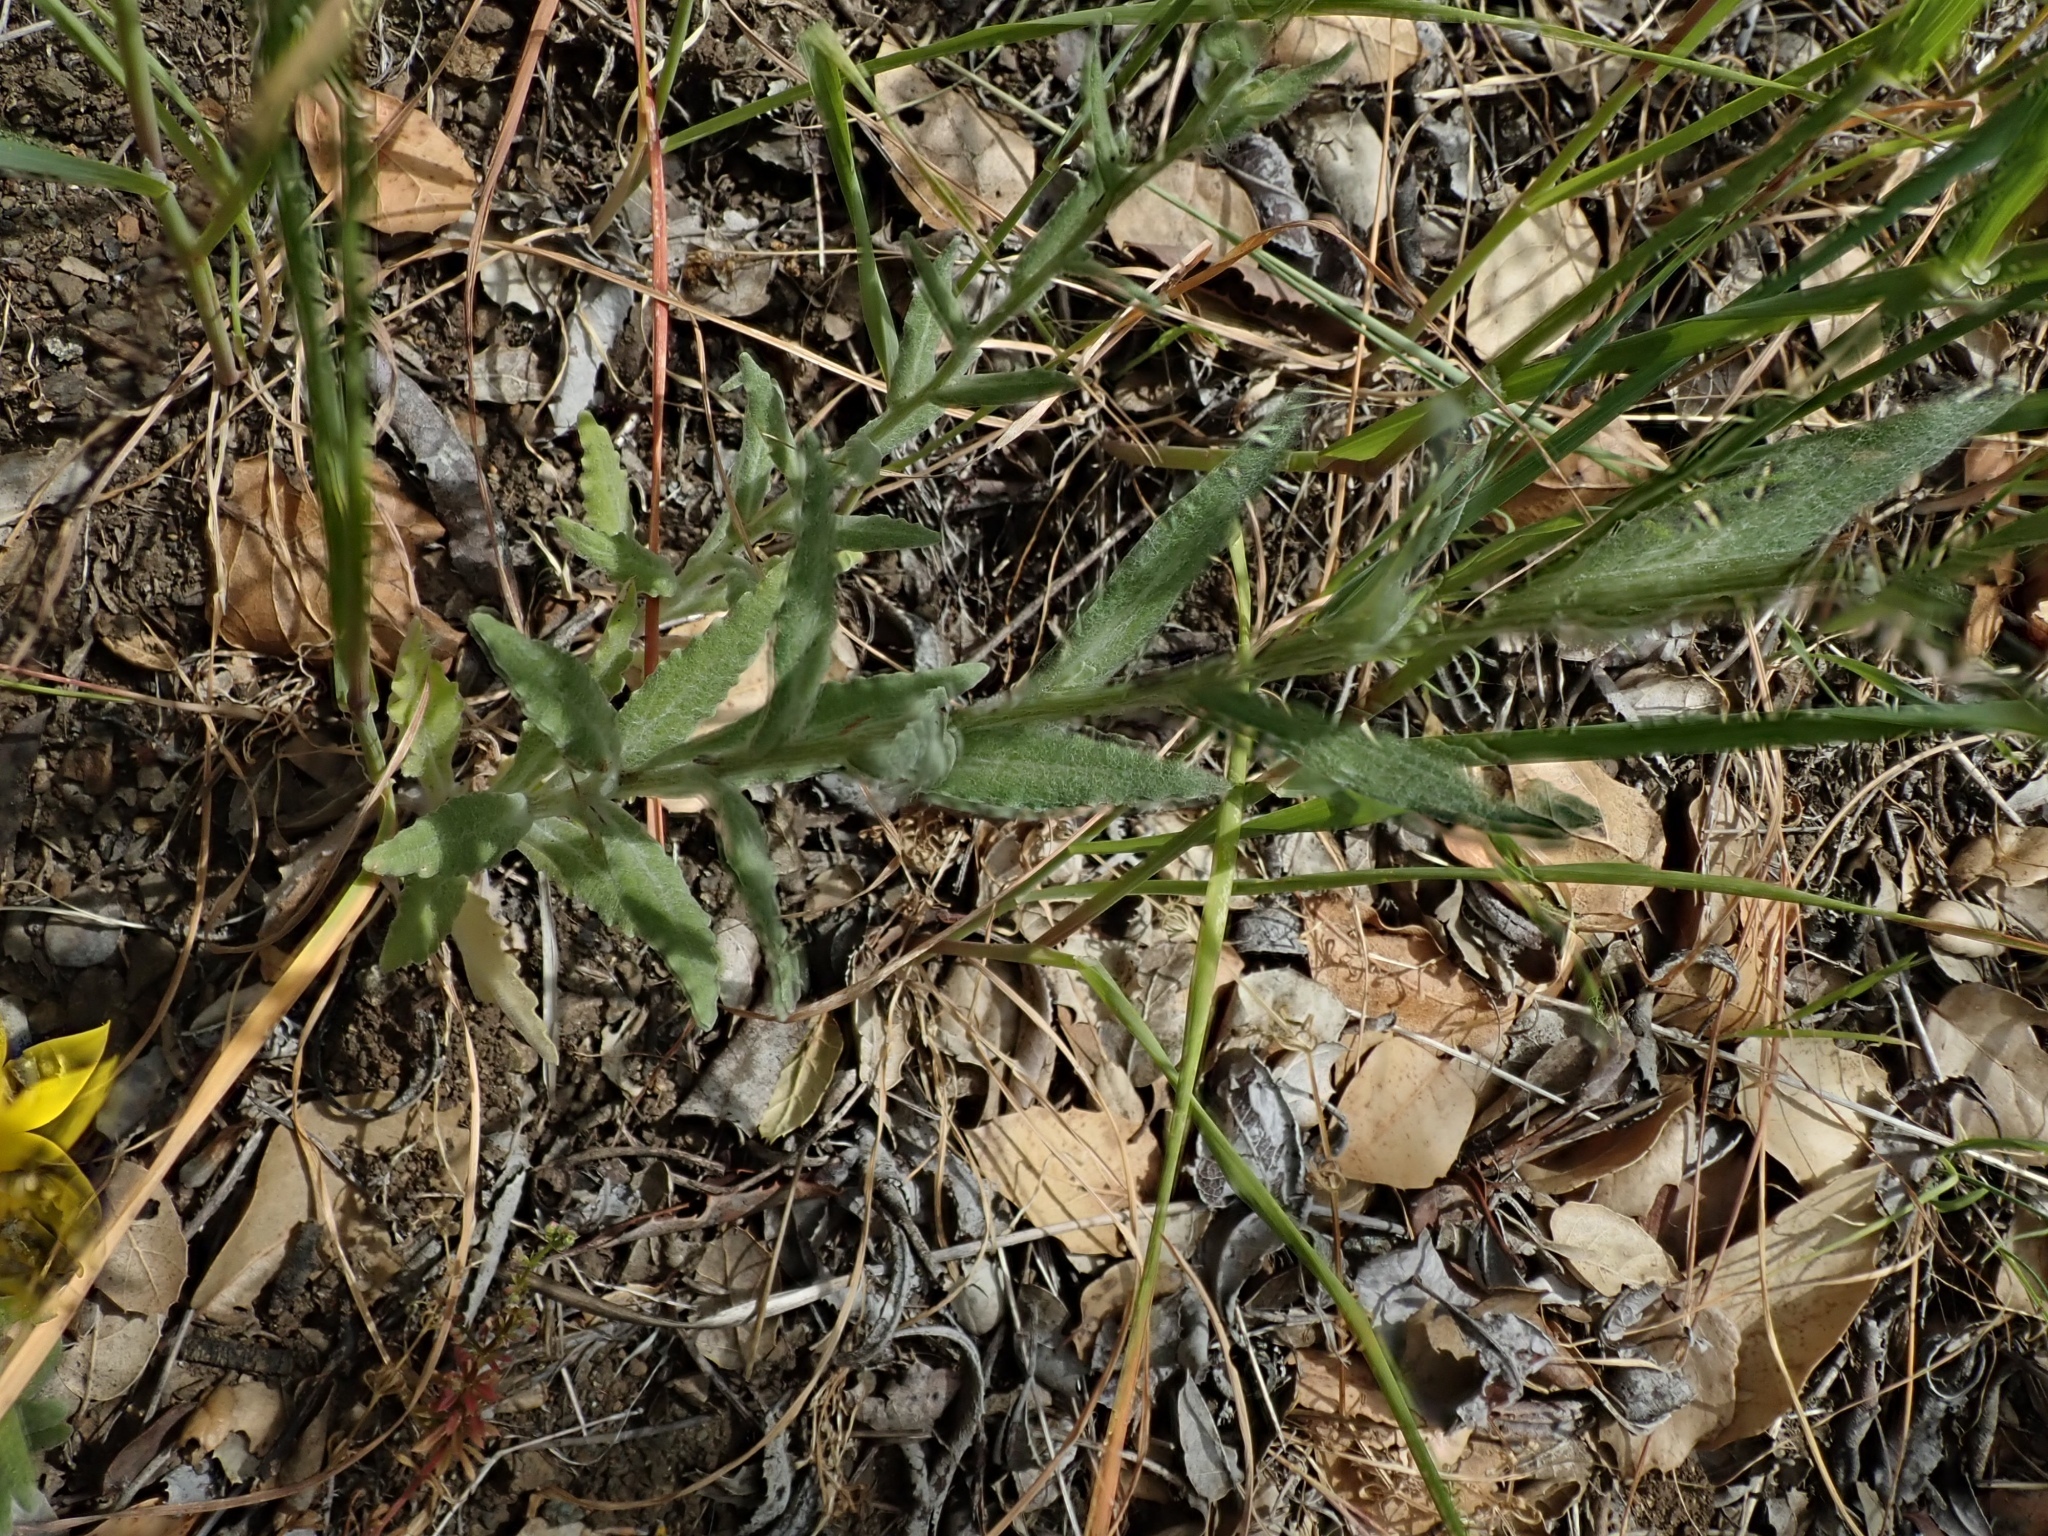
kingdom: Plantae
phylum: Tracheophyta
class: Magnoliopsida
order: Asterales
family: Asteraceae
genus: Monolopia
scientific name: Monolopia gracilens
